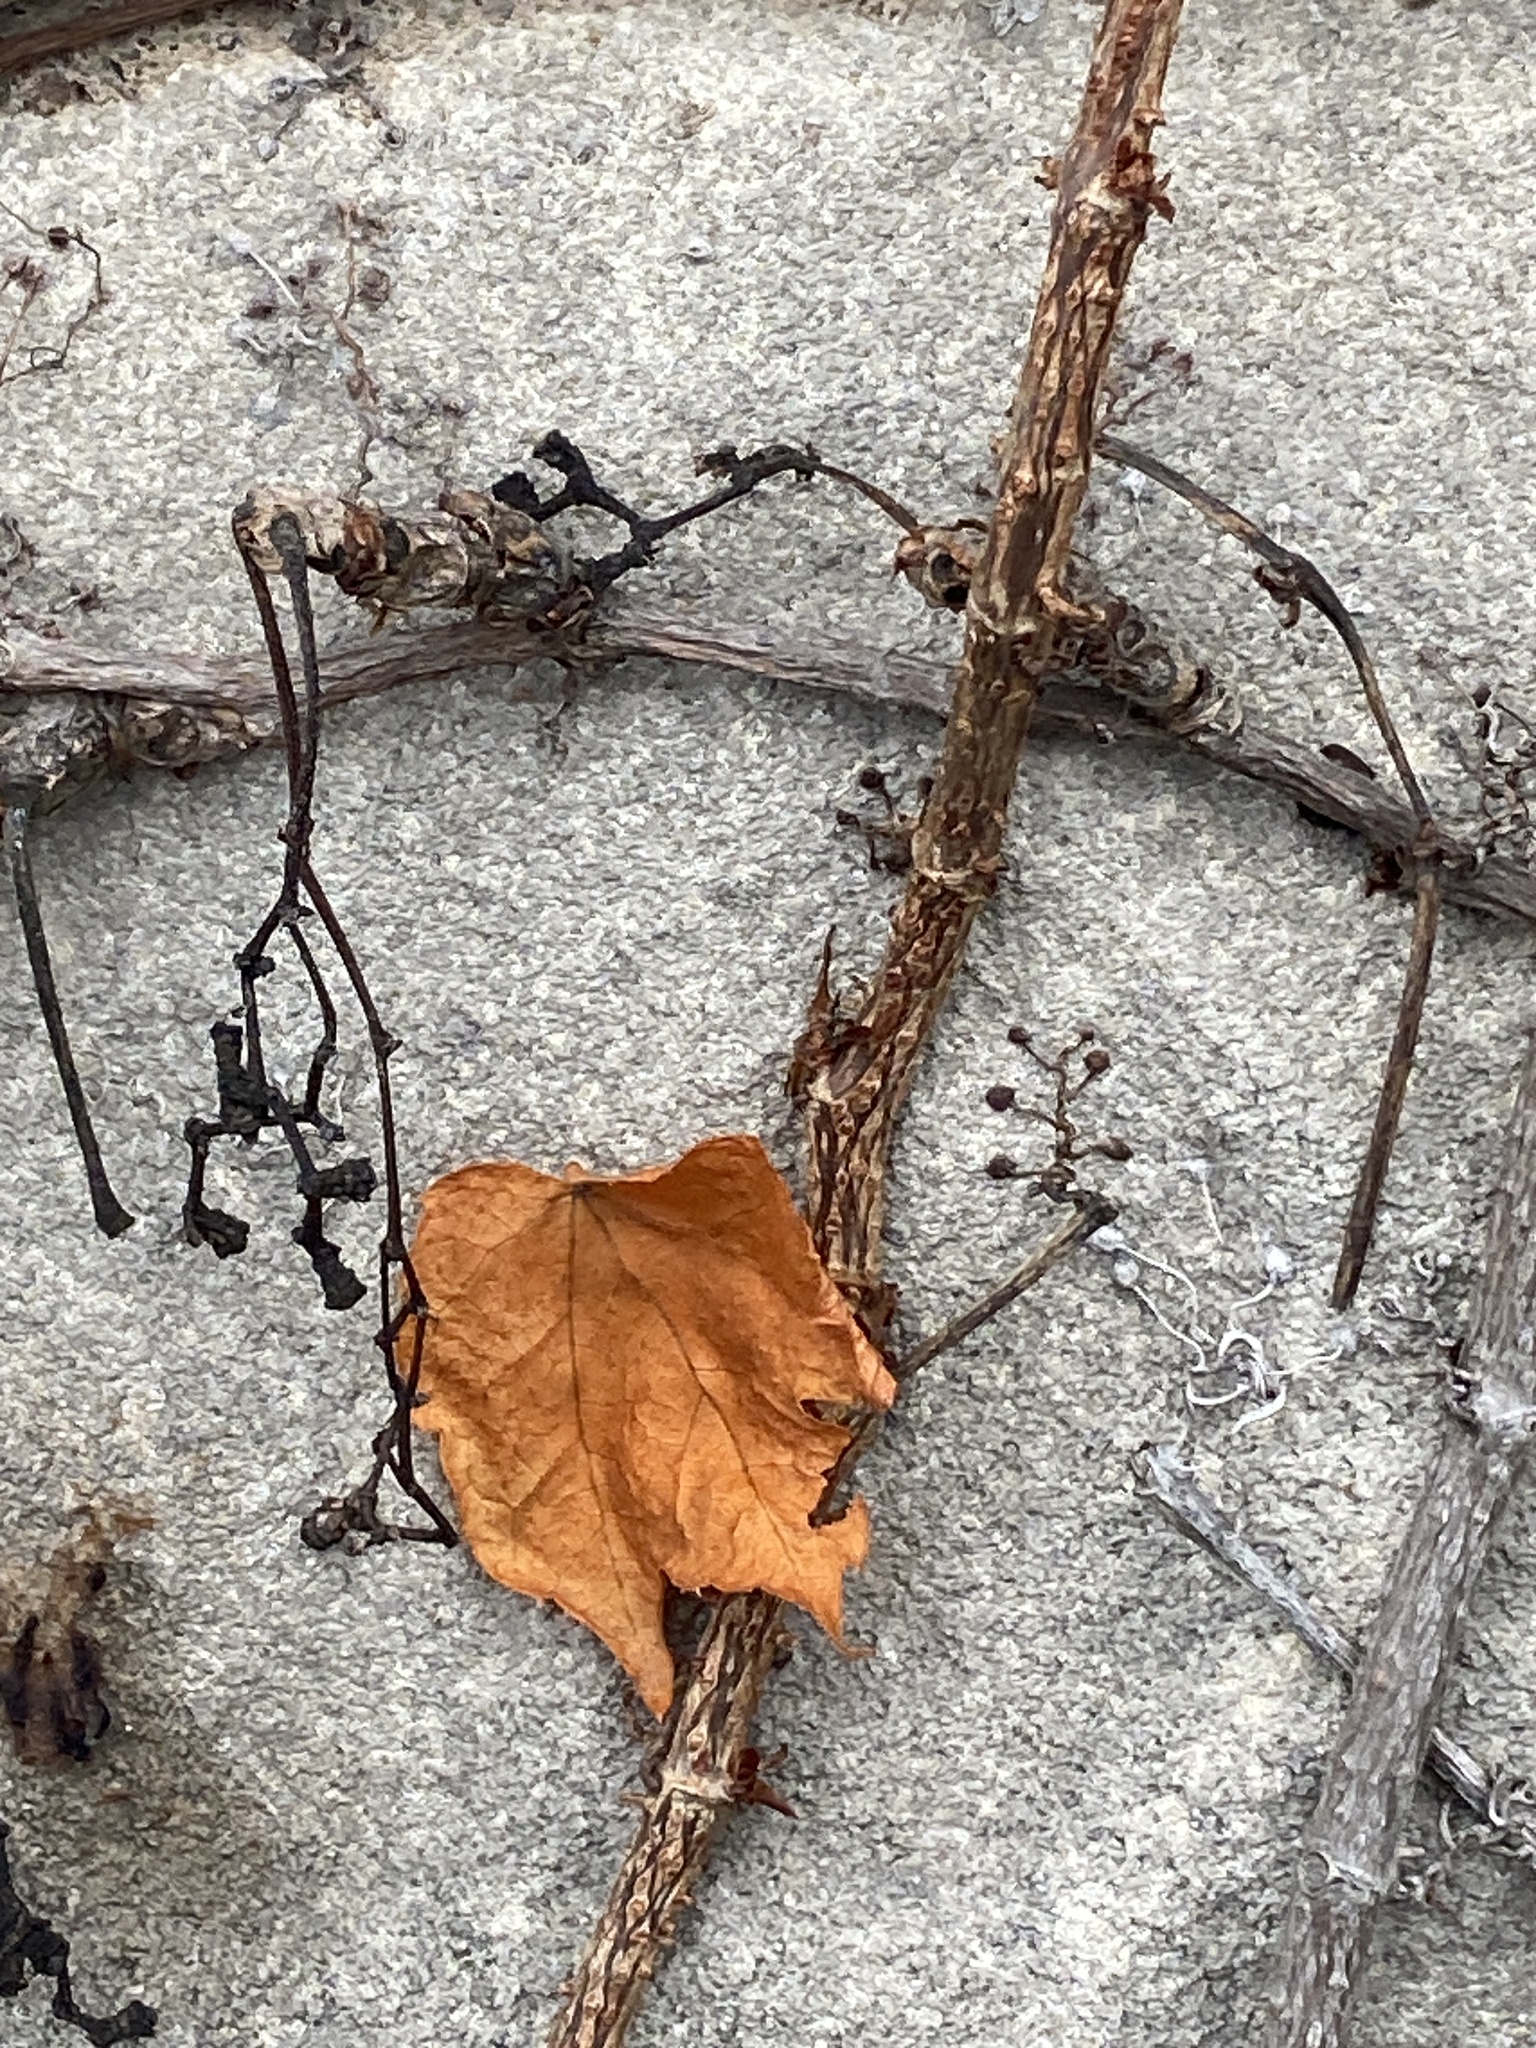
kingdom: Plantae
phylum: Tracheophyta
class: Magnoliopsida
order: Vitales
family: Vitaceae
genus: Parthenocissus
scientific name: Parthenocissus tricuspidata
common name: Boston ivy
